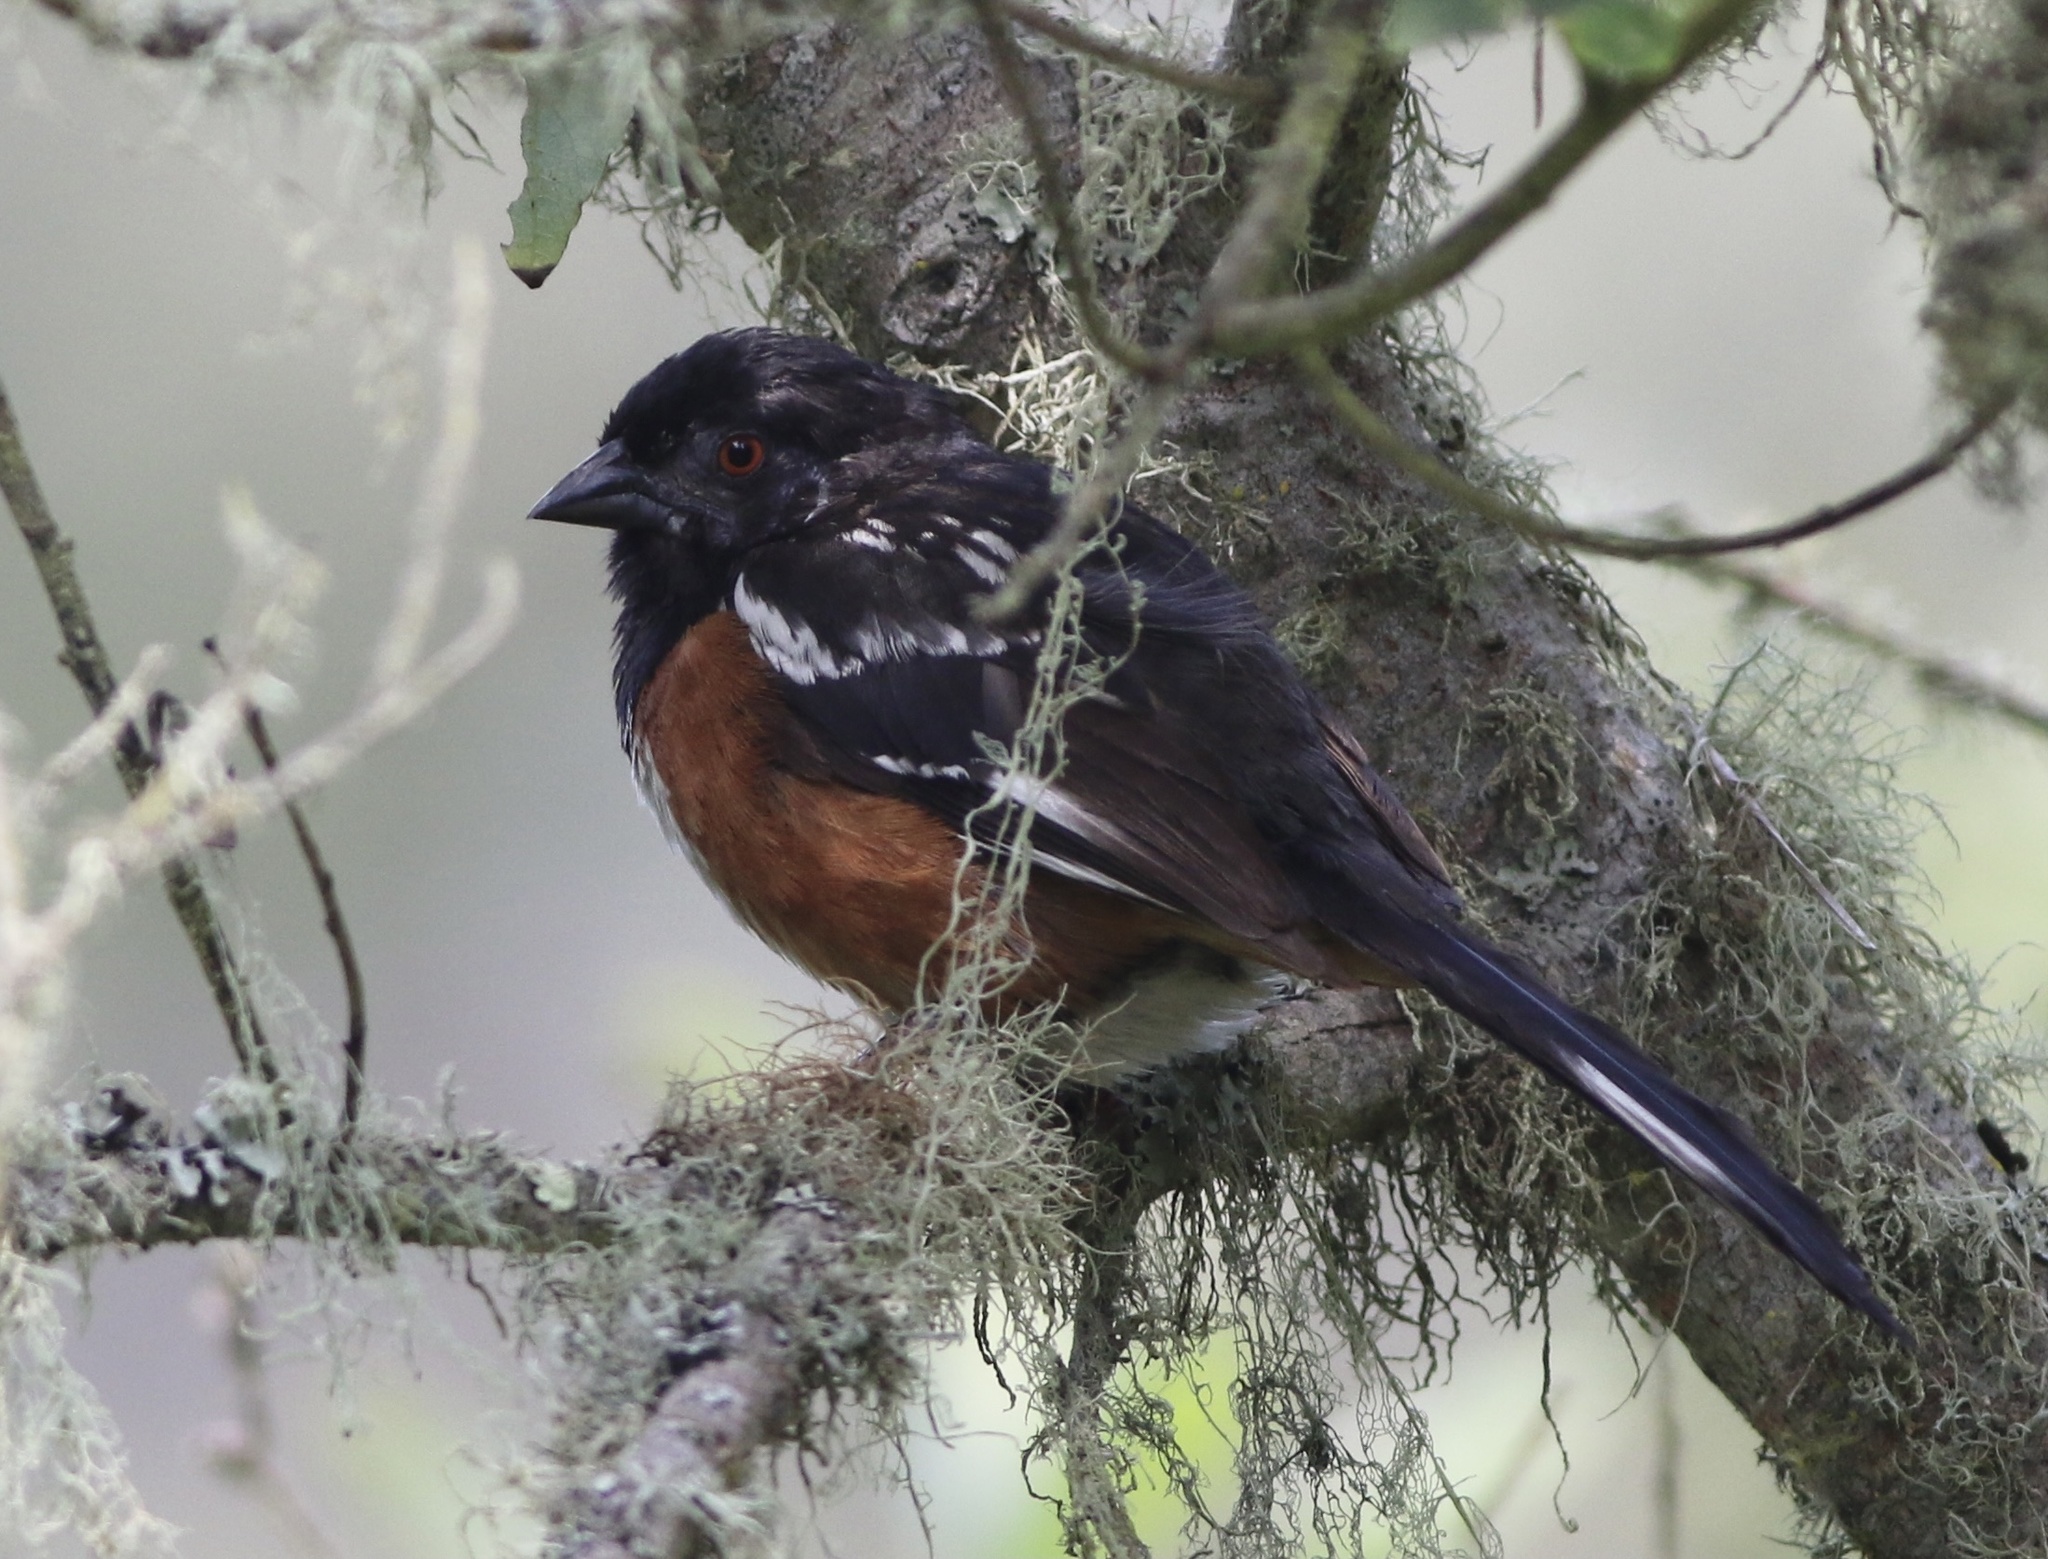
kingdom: Animalia
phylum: Chordata
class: Aves
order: Passeriformes
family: Passerellidae
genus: Pipilo
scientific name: Pipilo maculatus
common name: Spotted towhee
